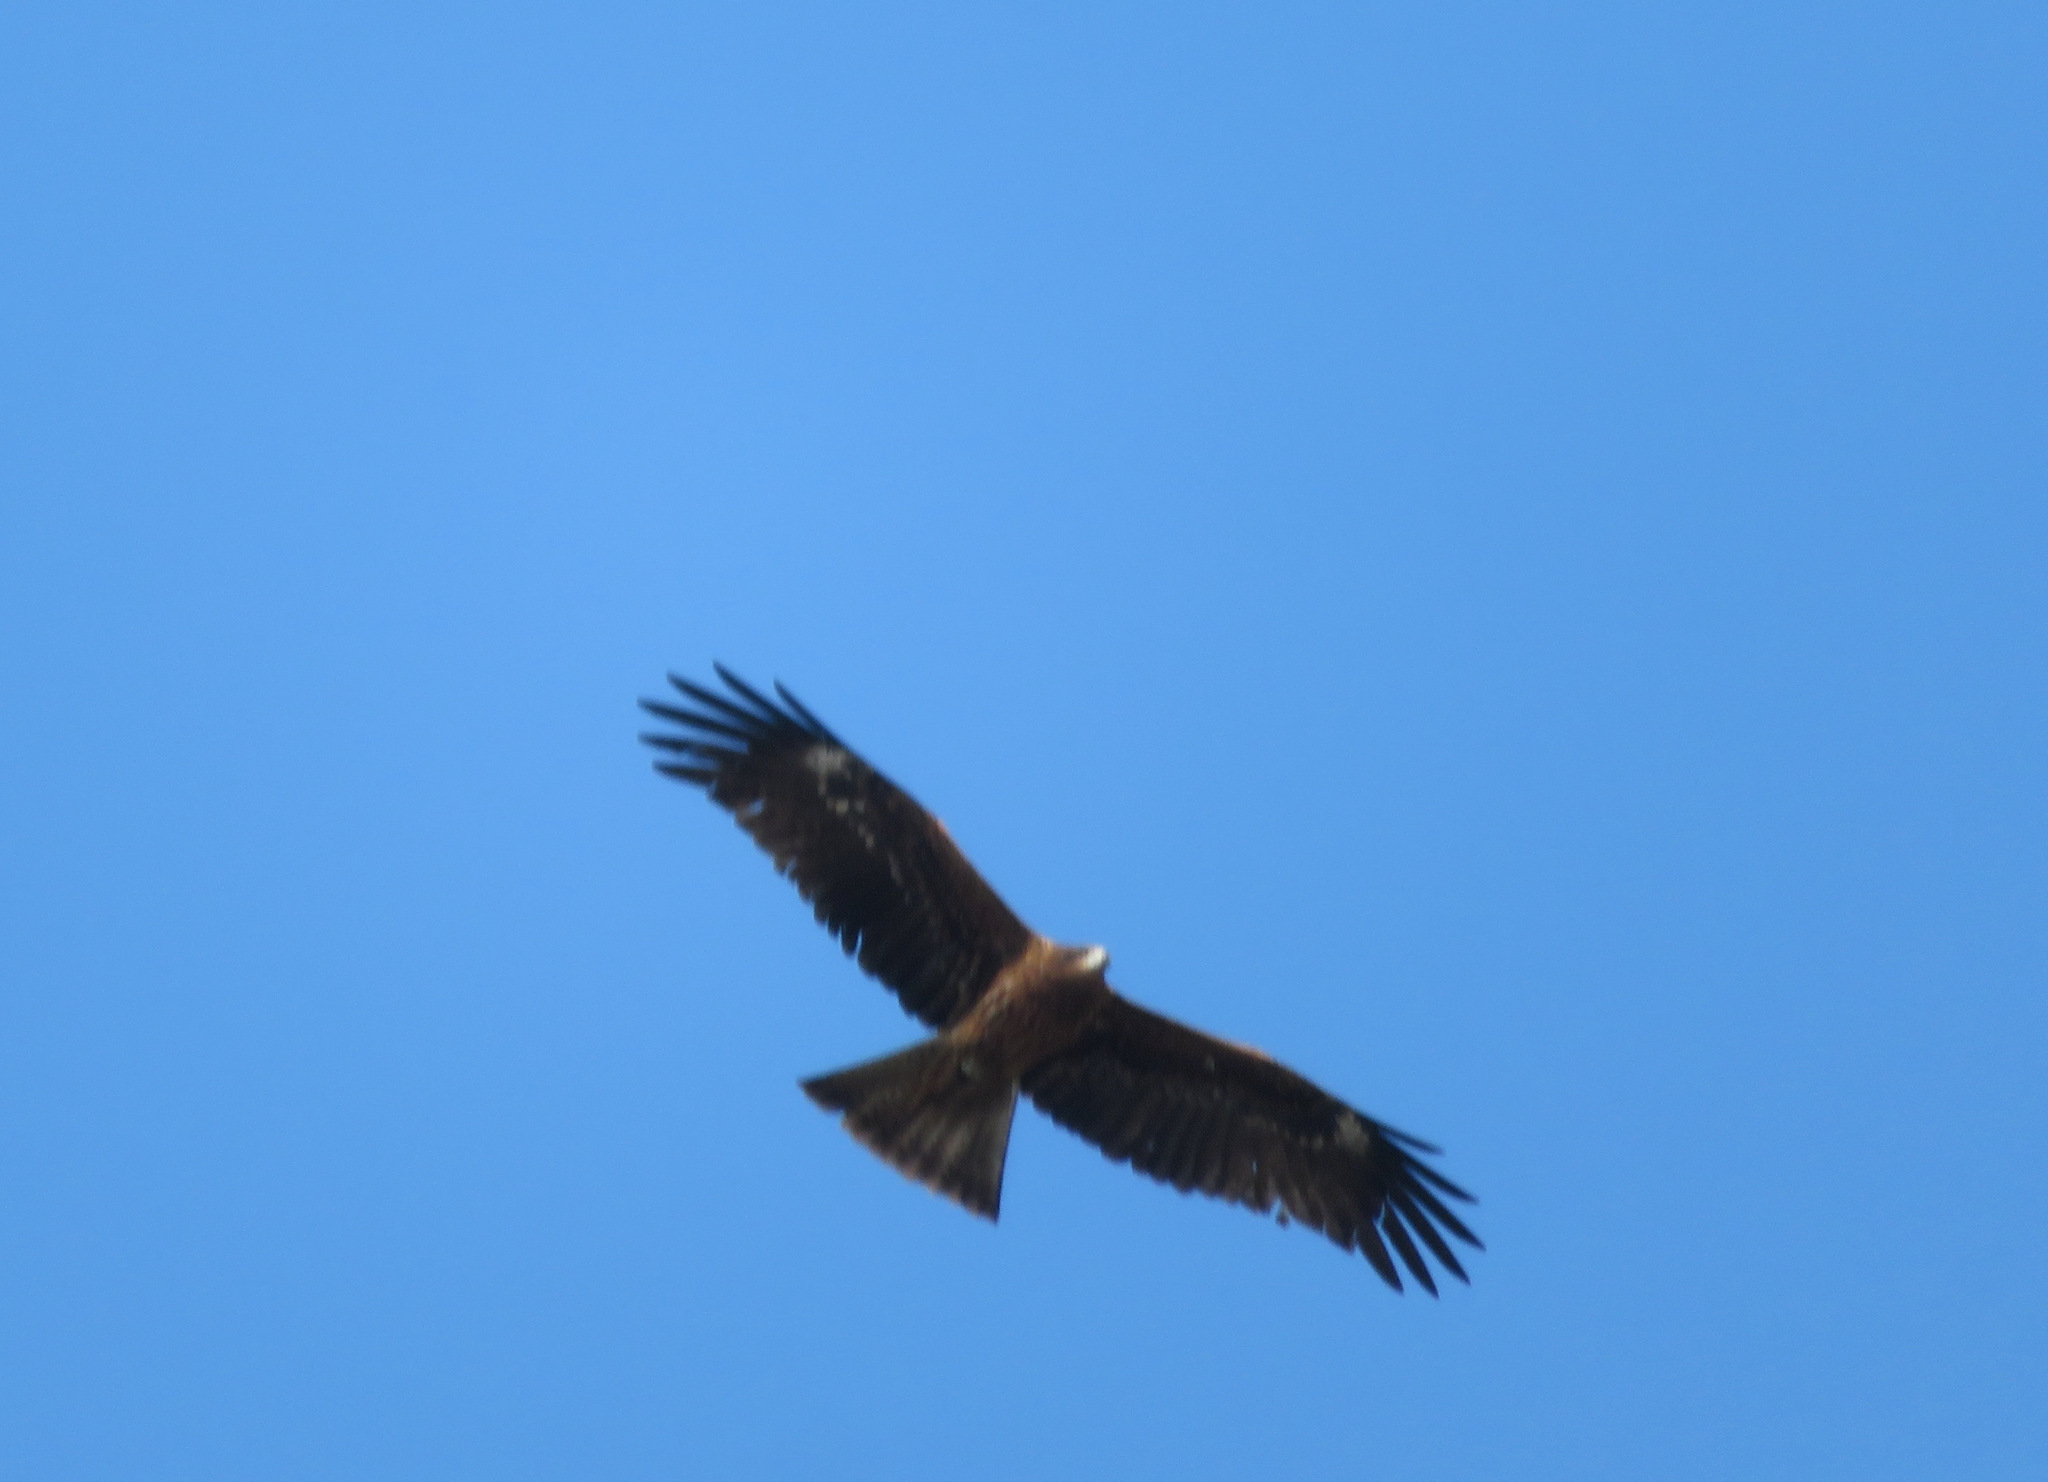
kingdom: Animalia
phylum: Chordata
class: Aves
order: Accipitriformes
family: Accipitridae
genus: Milvus
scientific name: Milvus migrans
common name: Black kite
